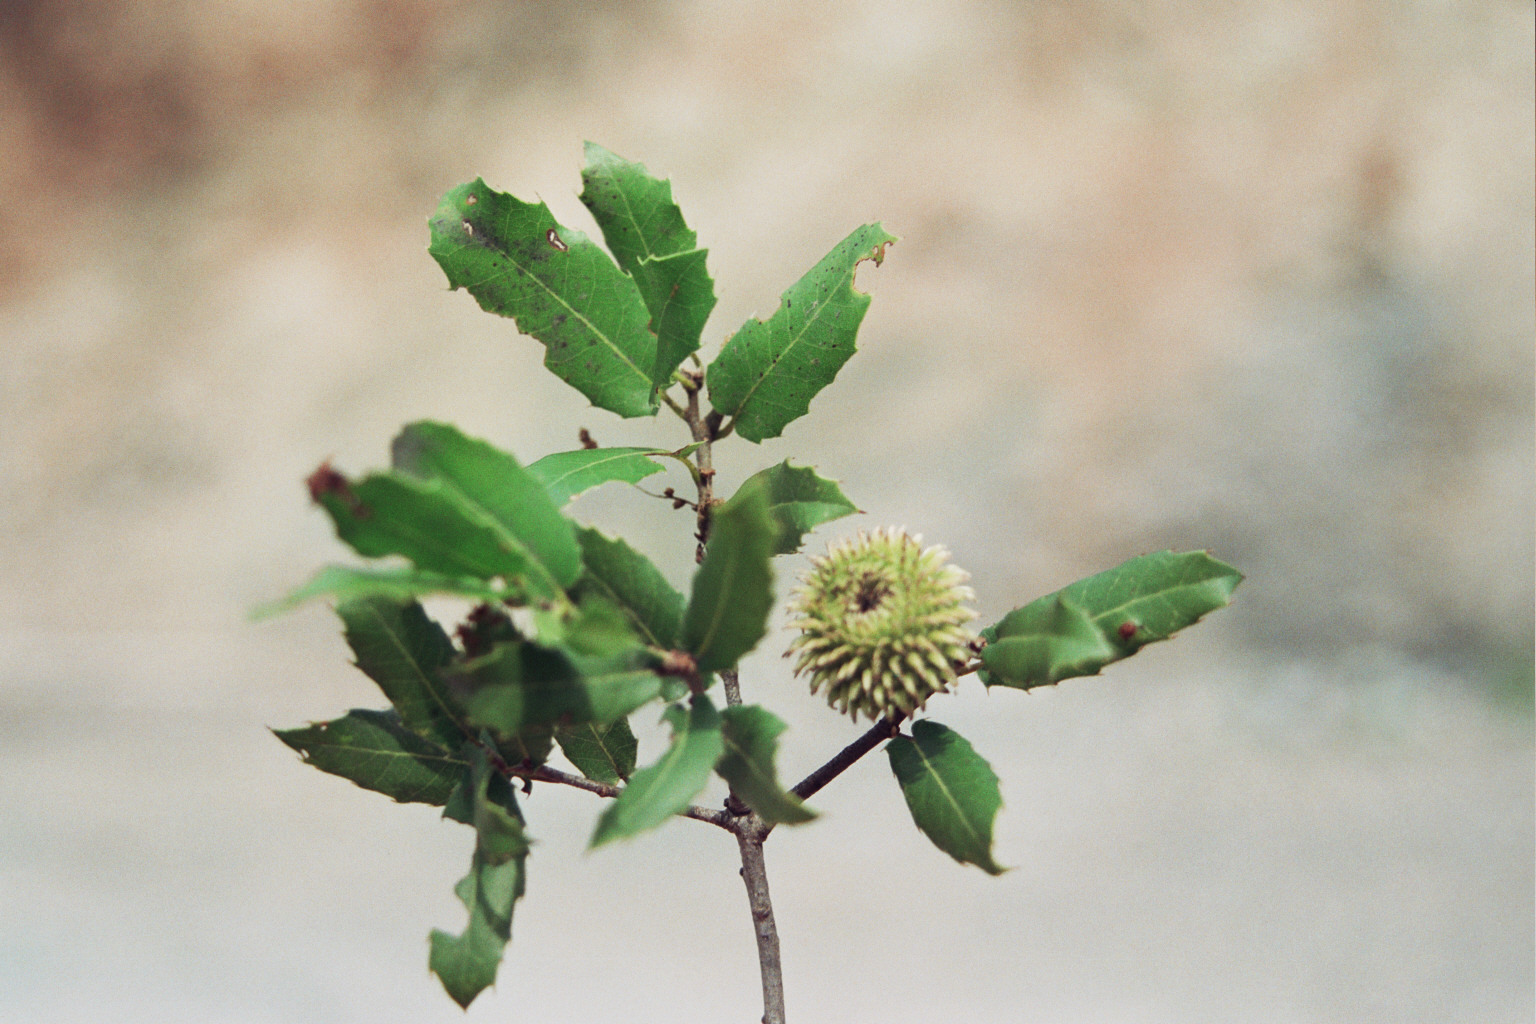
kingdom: Plantae
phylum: Tracheophyta
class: Magnoliopsida
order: Fagales
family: Fagaceae
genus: Quercus
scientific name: Quercus coccifera
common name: Kermes oak
